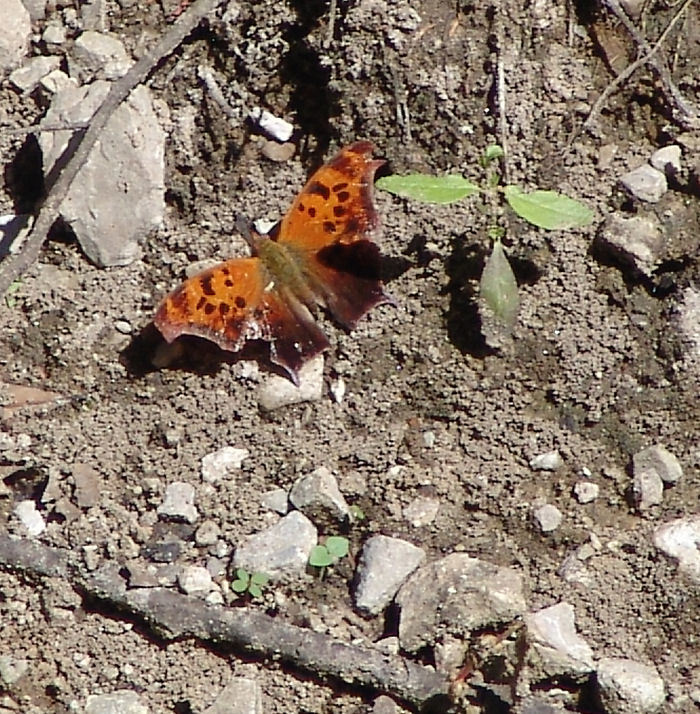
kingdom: Animalia
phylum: Arthropoda
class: Insecta
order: Lepidoptera
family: Nymphalidae
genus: Polygonia
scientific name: Polygonia interrogationis
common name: Question mark
